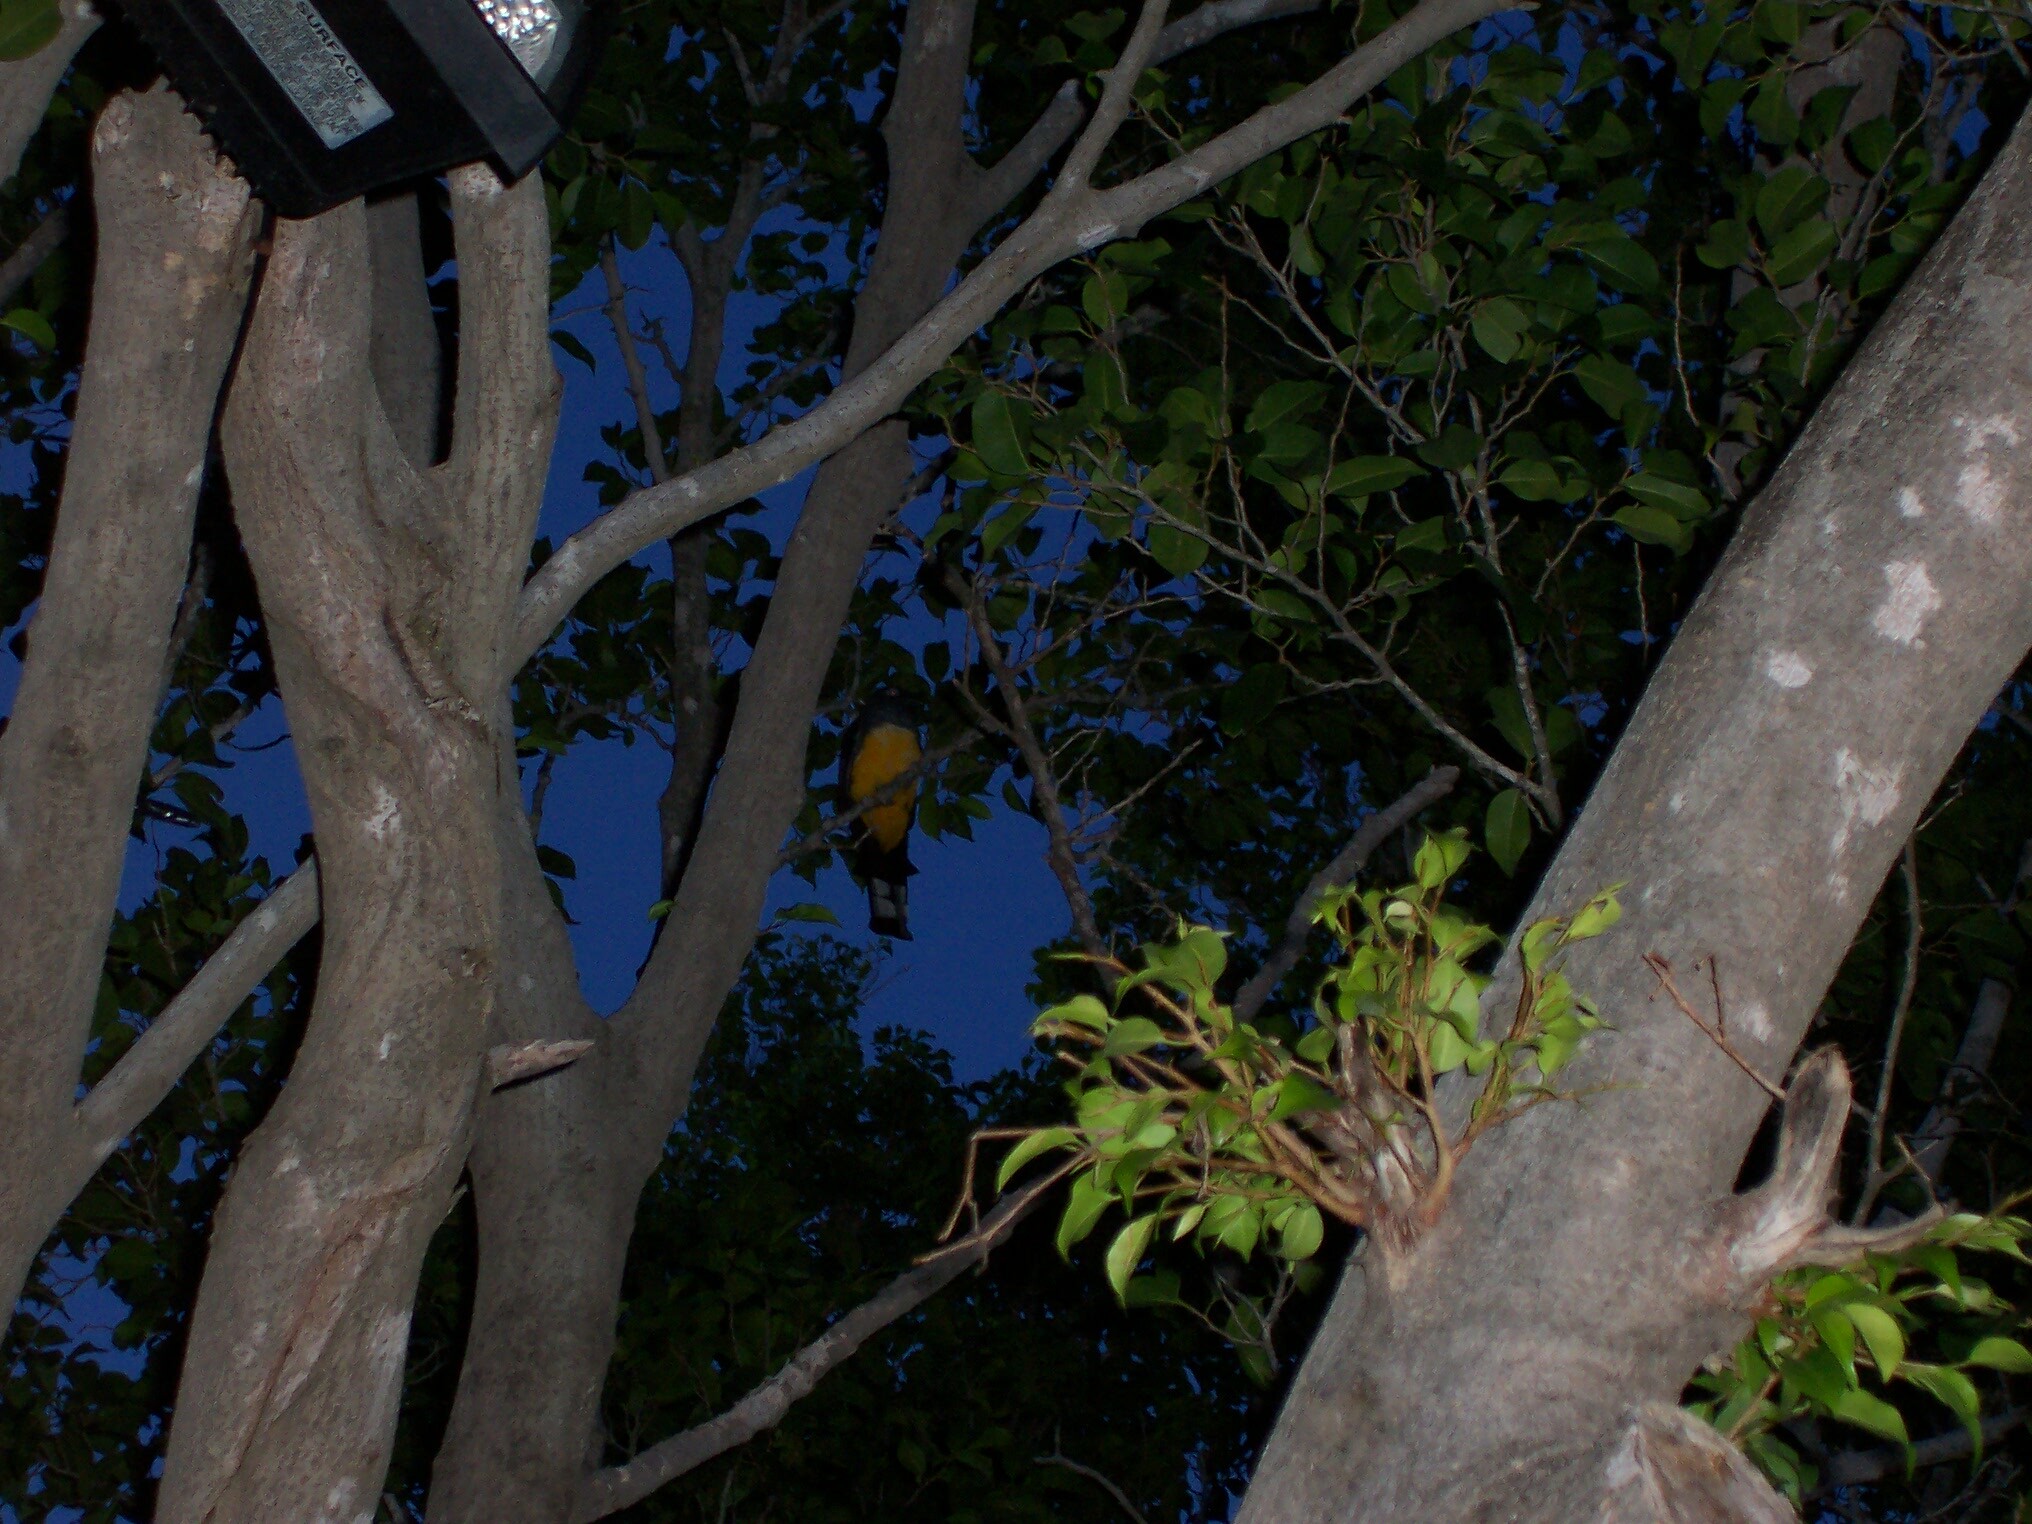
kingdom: Animalia
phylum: Chordata
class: Aves
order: Trogoniformes
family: Trogonidae
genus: Trogon
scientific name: Trogon melanocephalus
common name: Black-headed trogon
